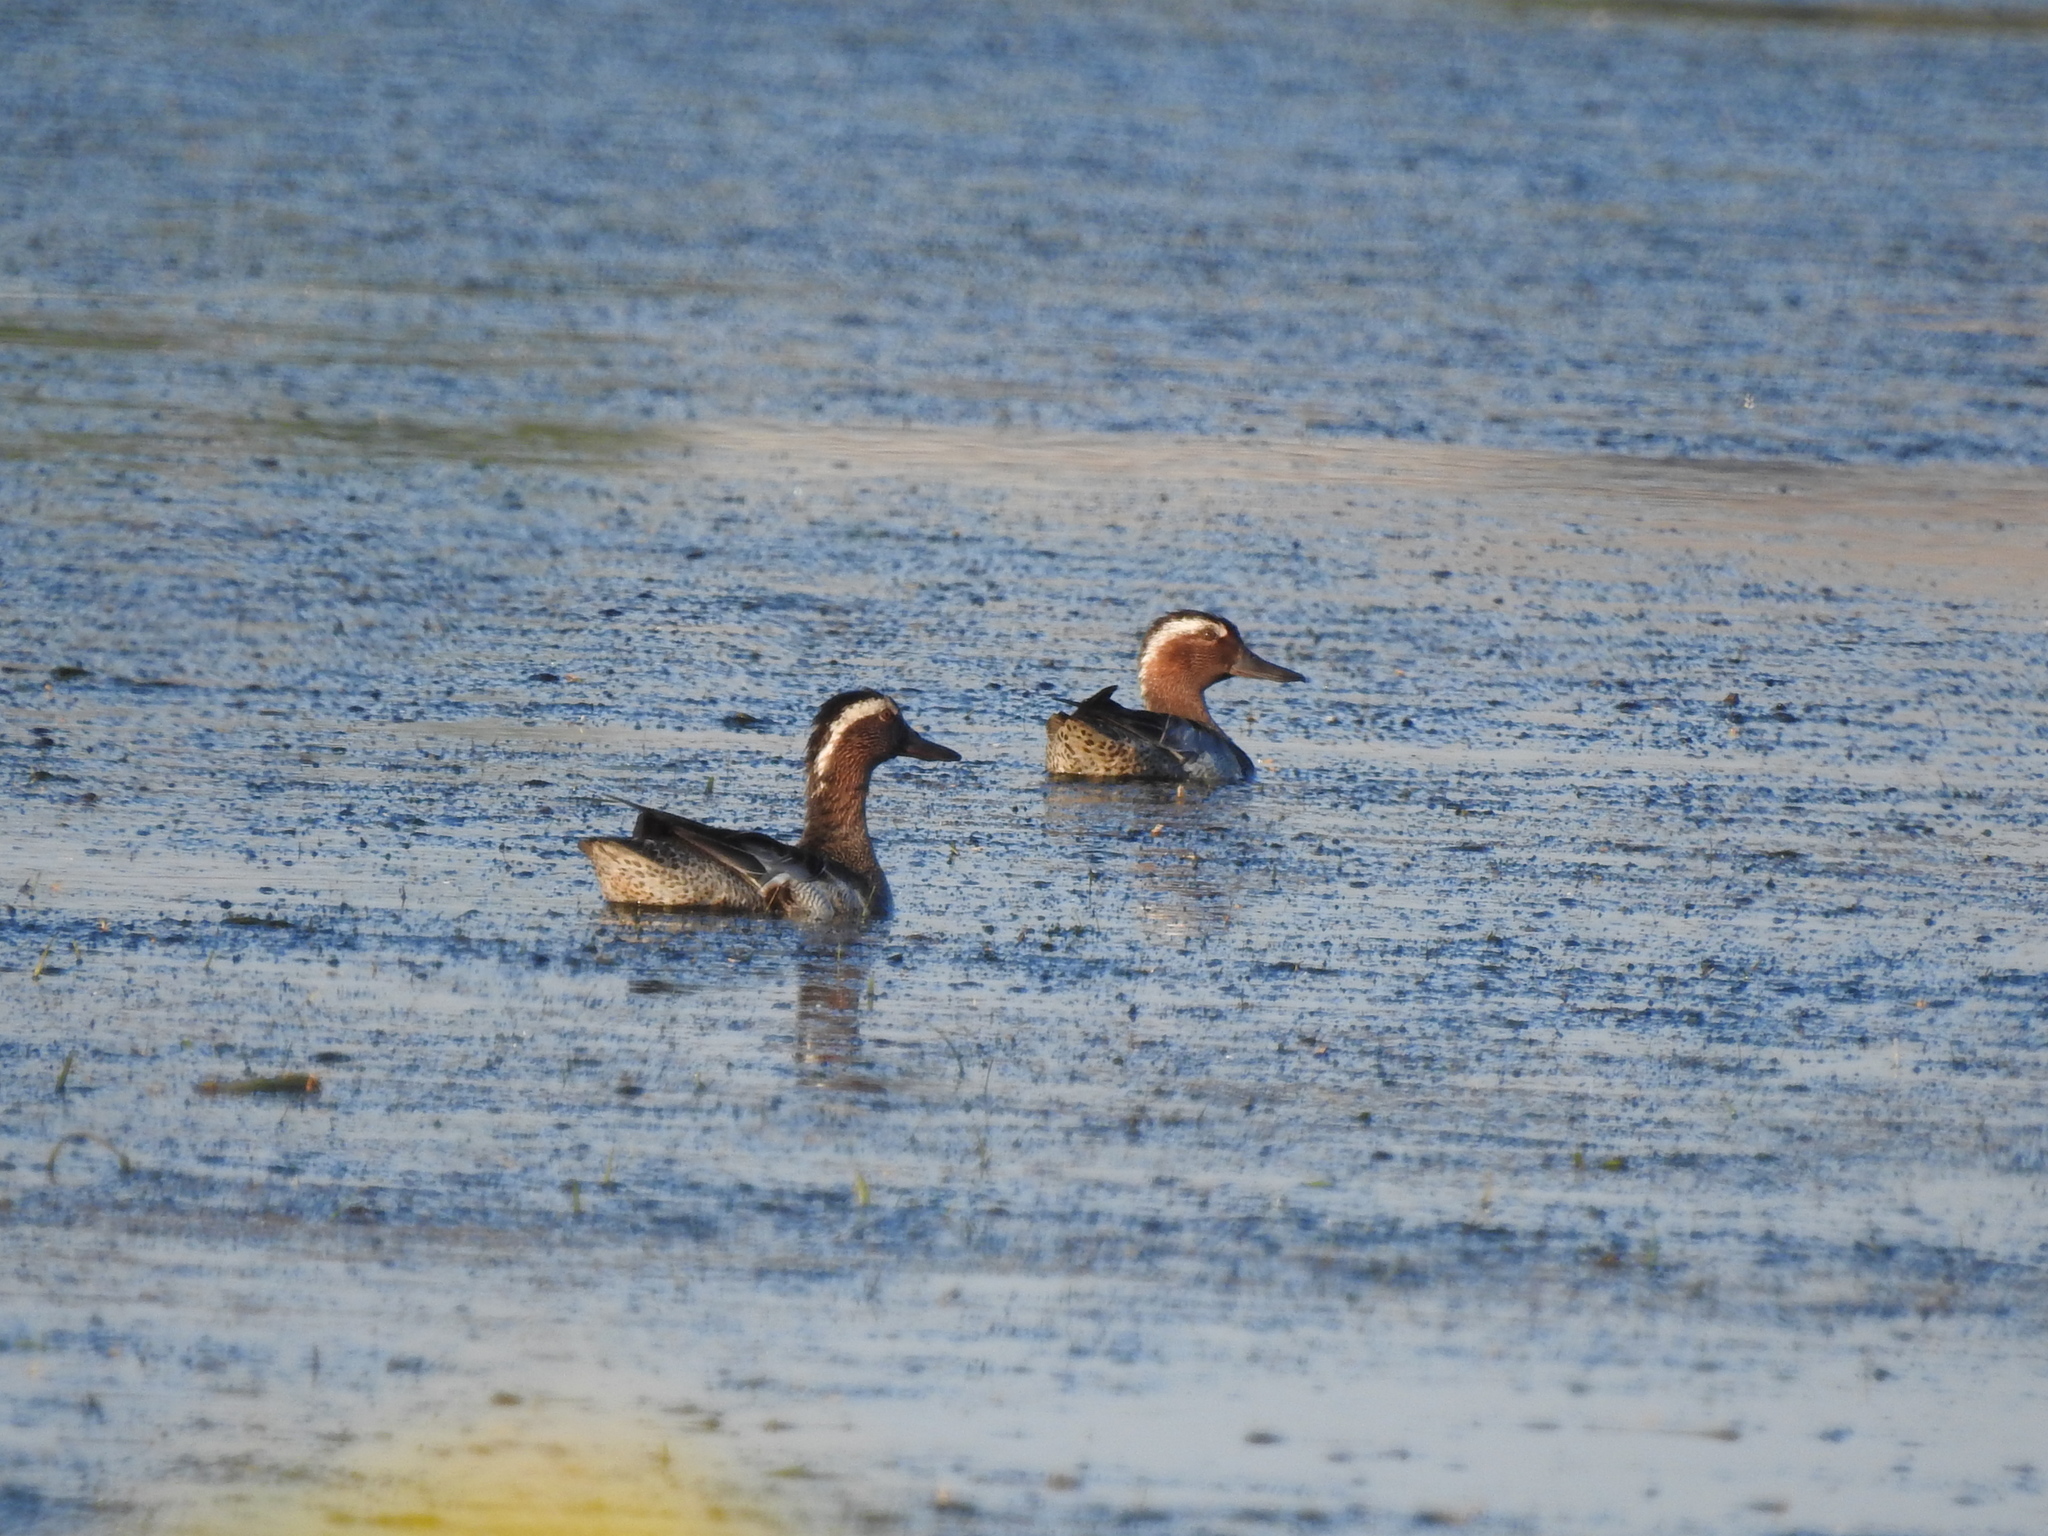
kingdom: Animalia
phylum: Chordata
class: Aves
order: Anseriformes
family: Anatidae
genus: Spatula
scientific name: Spatula querquedula
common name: Garganey
